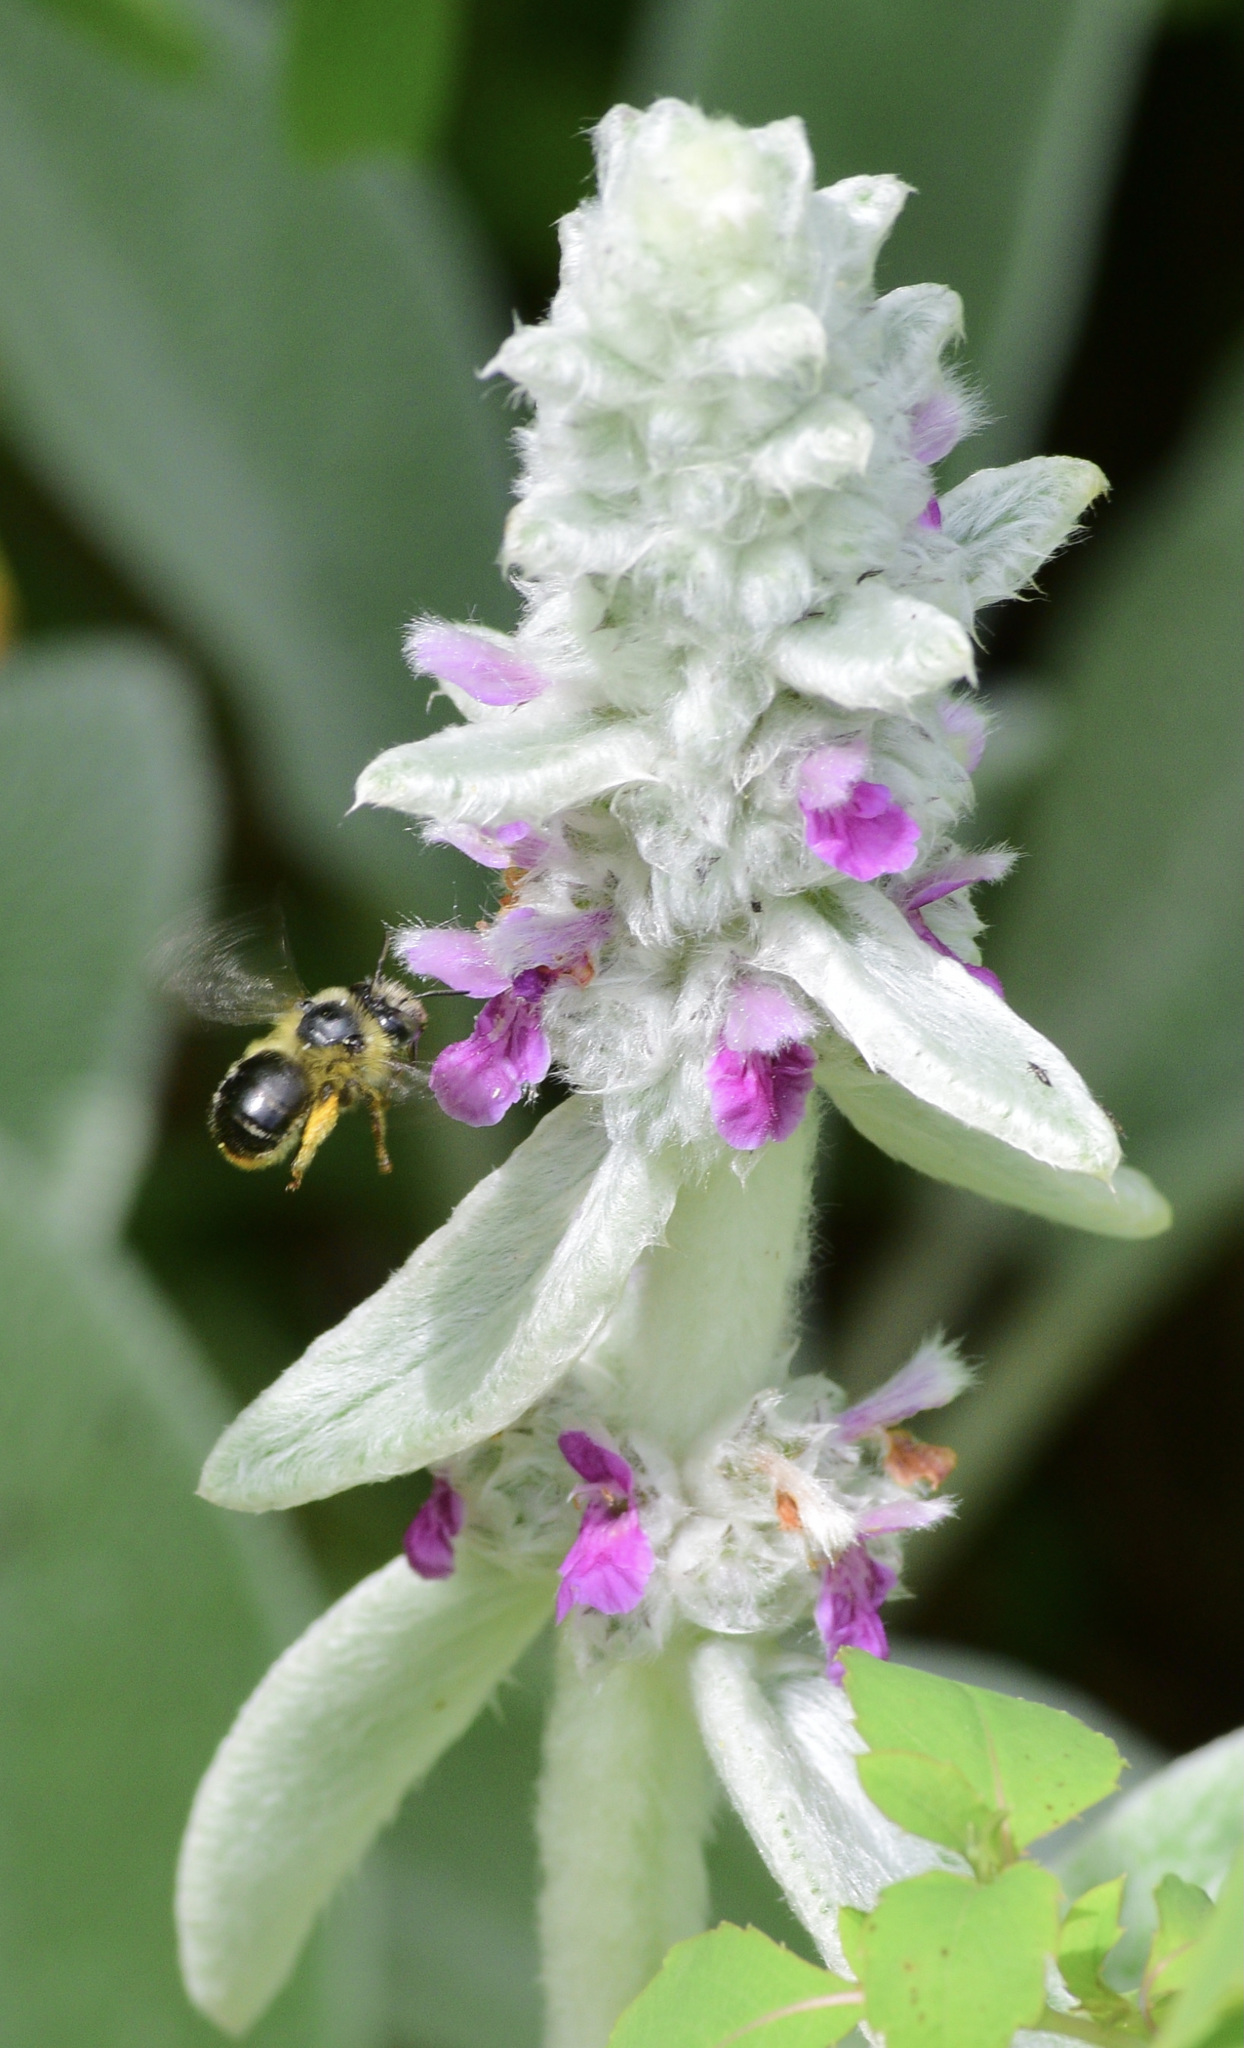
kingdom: Animalia
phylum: Arthropoda
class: Insecta
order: Hymenoptera
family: Apidae
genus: Anthophora
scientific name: Anthophora terminalis
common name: Orange-tipped wood-digger bee
